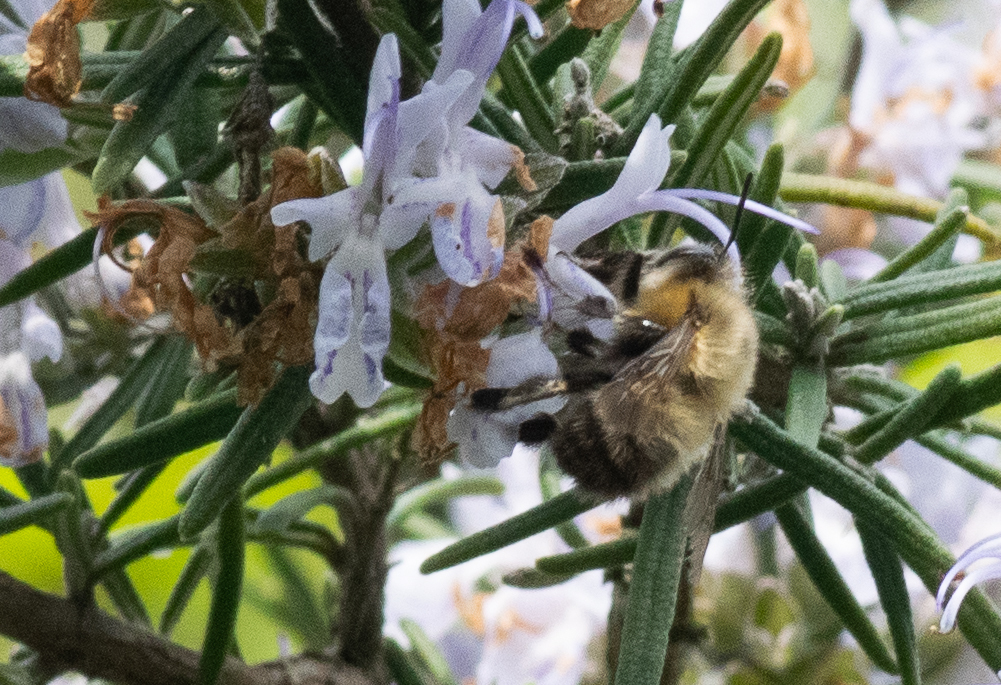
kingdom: Animalia
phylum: Arthropoda
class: Insecta
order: Hymenoptera
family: Apidae
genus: Anthophora
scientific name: Anthophora plumipes
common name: Hairy-footed flower bee
